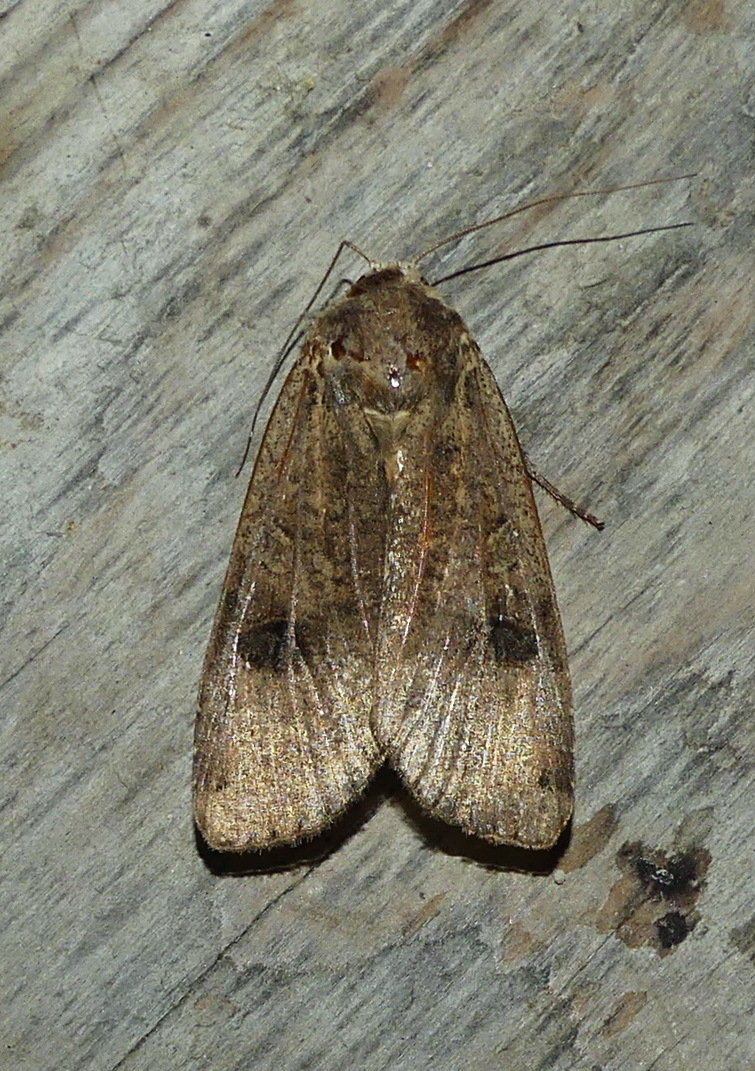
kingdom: Animalia
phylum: Arthropoda
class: Insecta
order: Lepidoptera
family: Noctuidae
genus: Noctua
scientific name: Noctua pronuba
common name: Large yellow underwing
